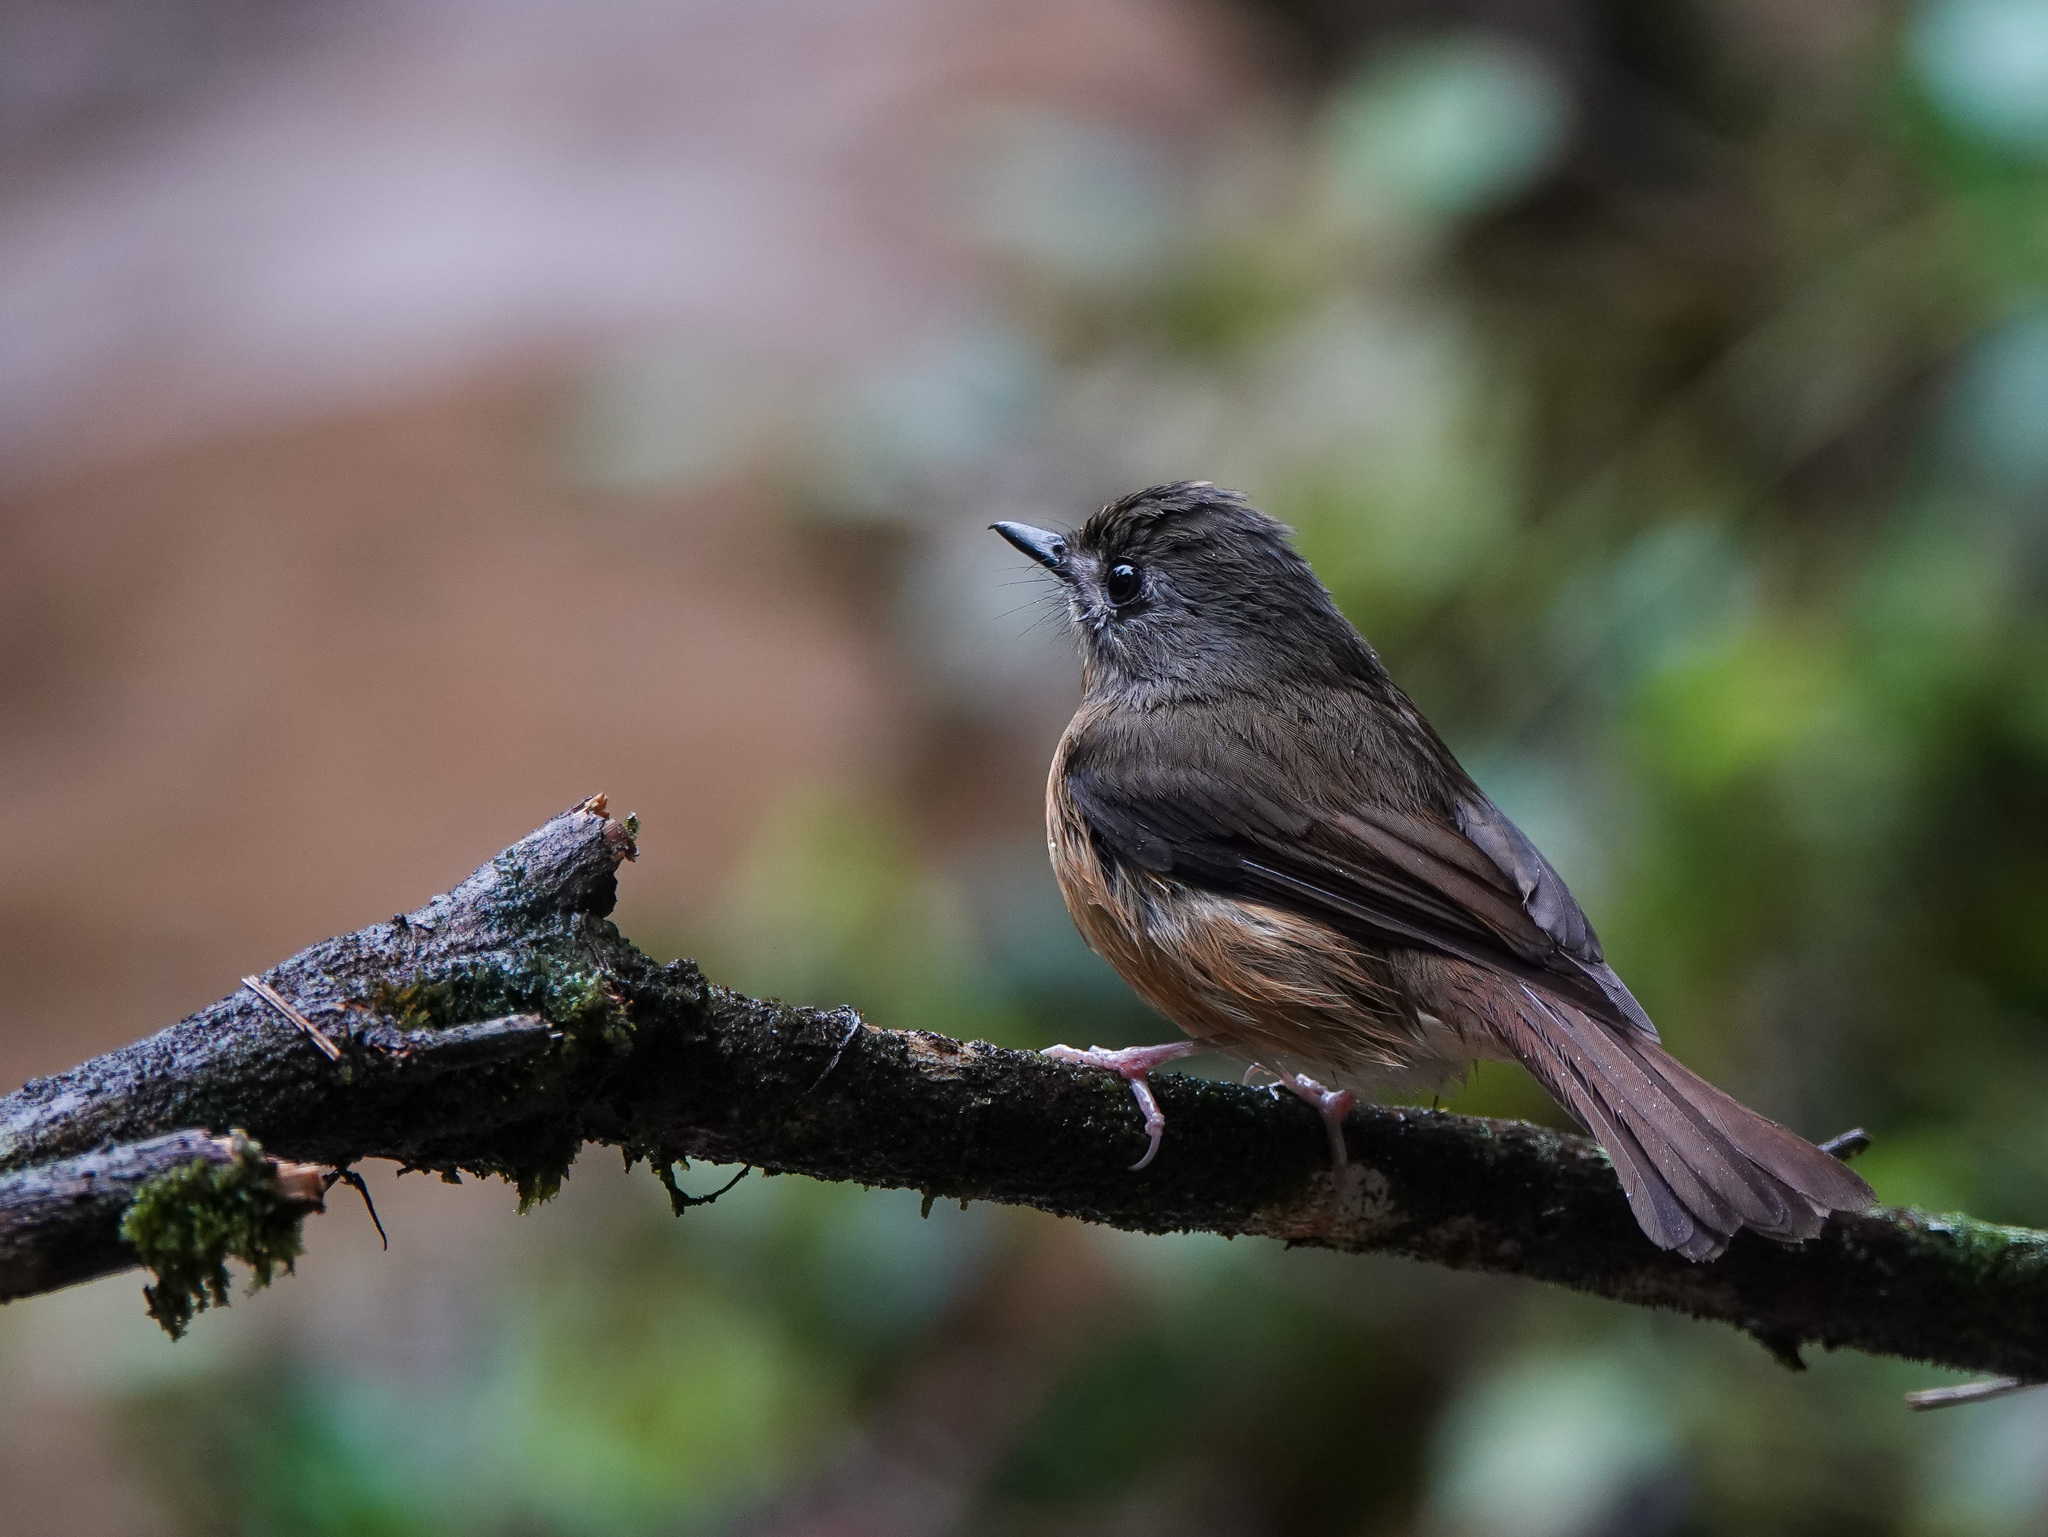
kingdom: Animalia
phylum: Chordata
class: Aves
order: Passeriformes
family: Muscicapidae
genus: Cyornis
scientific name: Cyornis poliogenys
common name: Pale-chinned blue flycatcher
